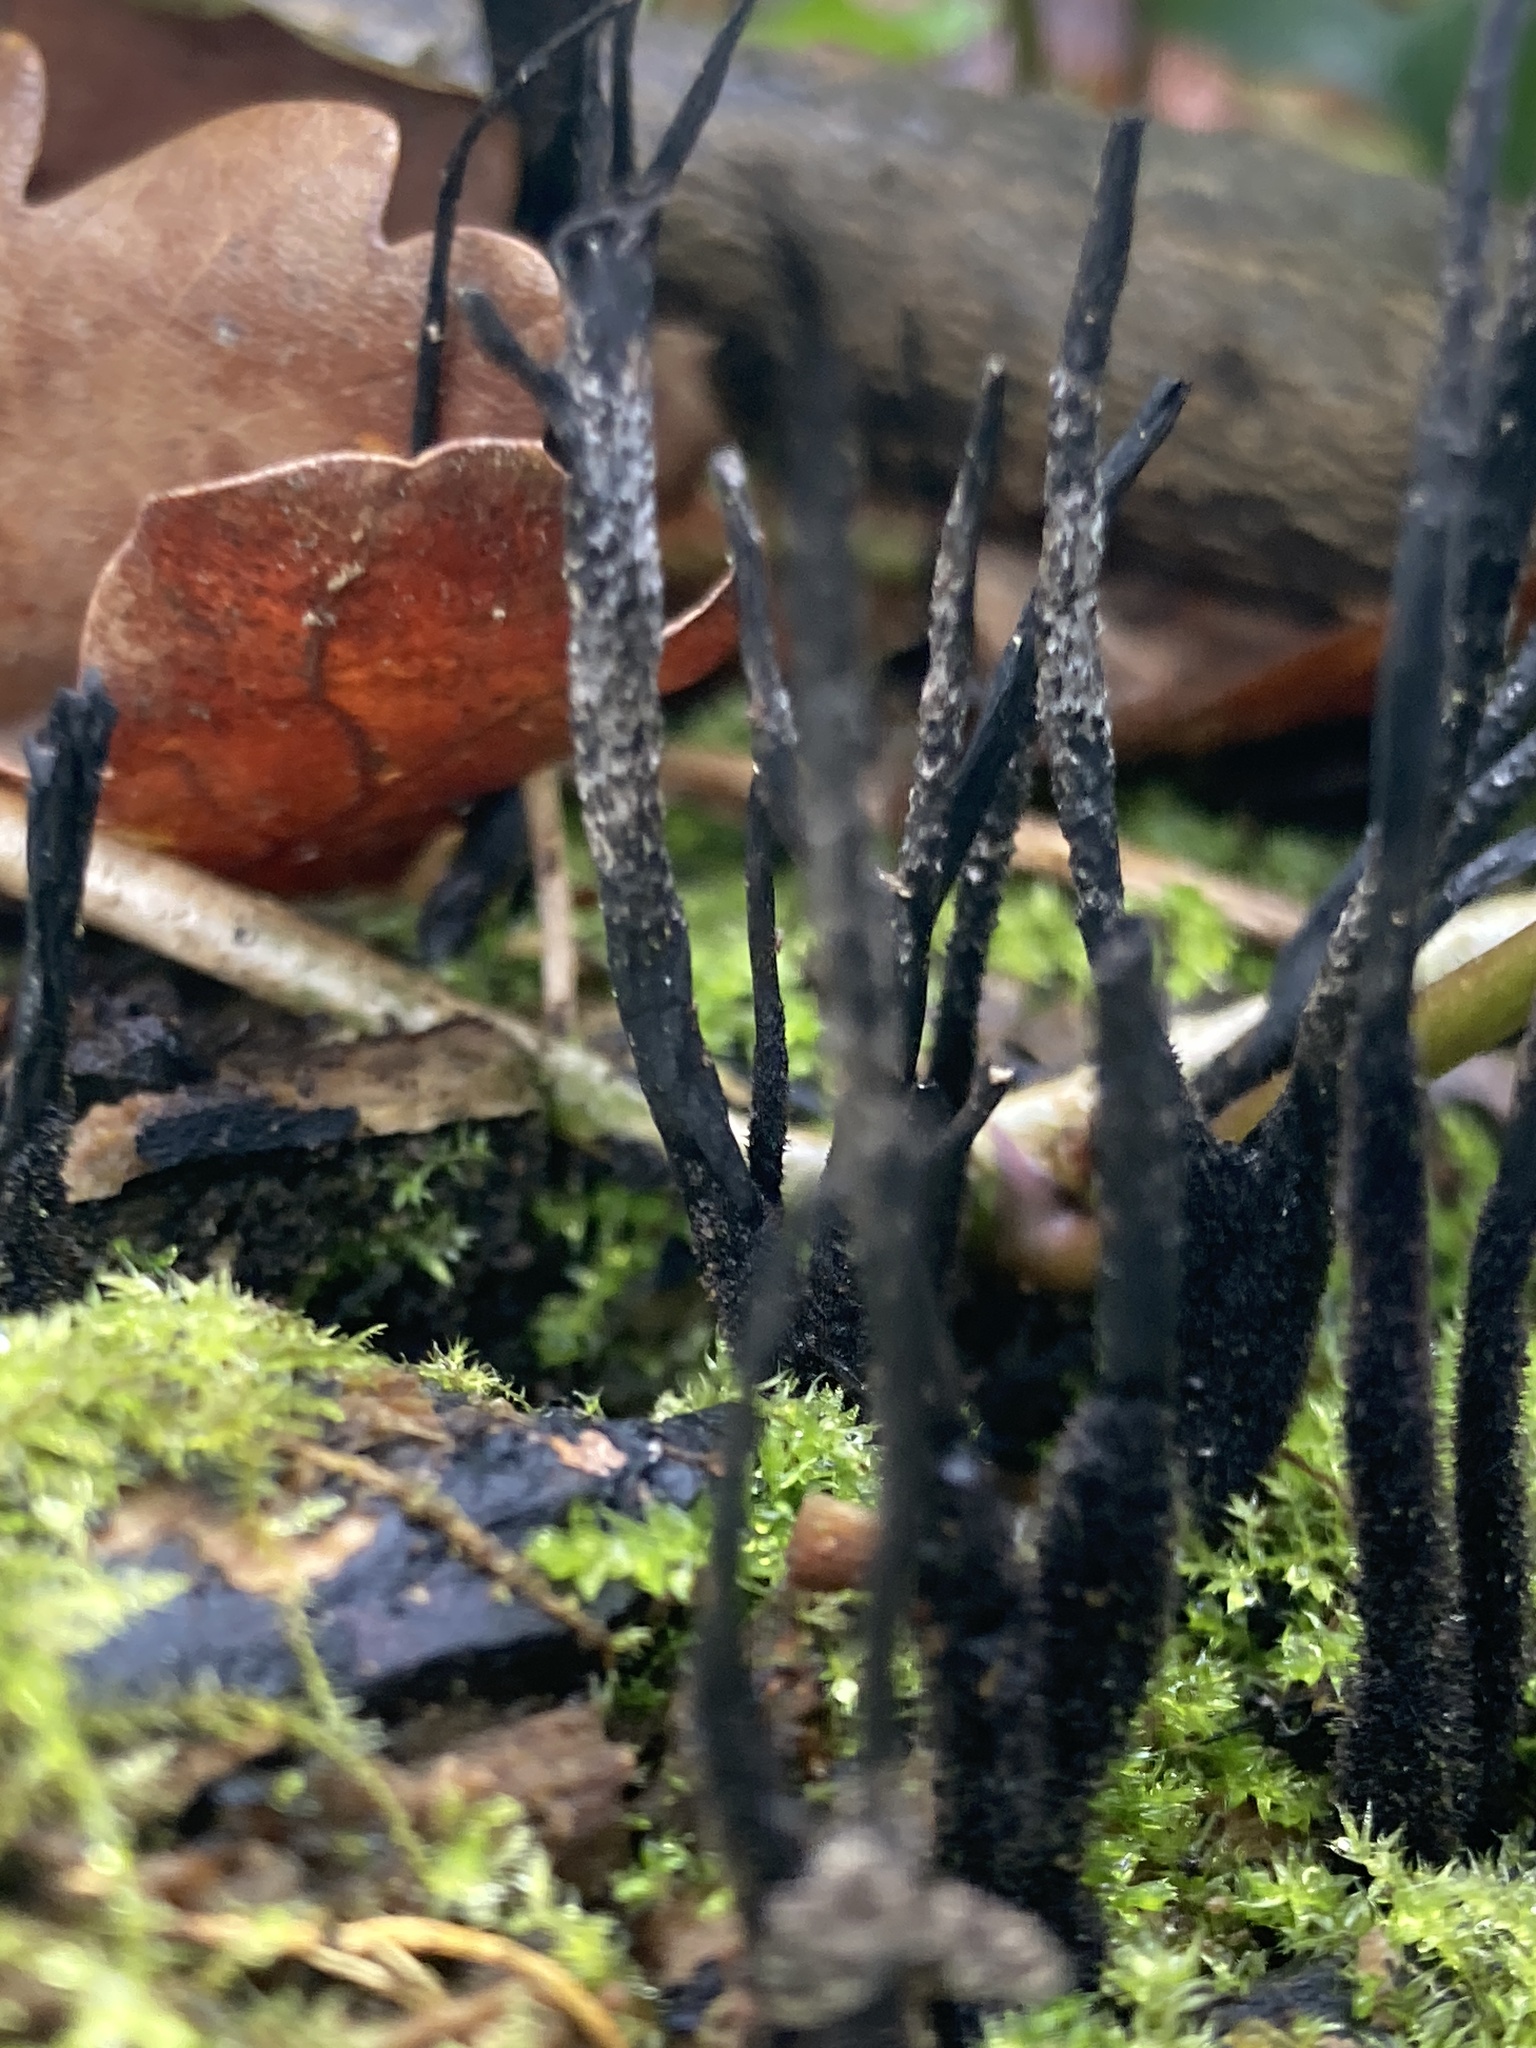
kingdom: Fungi
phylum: Ascomycota
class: Sordariomycetes
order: Xylariales
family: Xylariaceae
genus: Xylaria
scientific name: Xylaria hypoxylon
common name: Candle-snuff fungus
